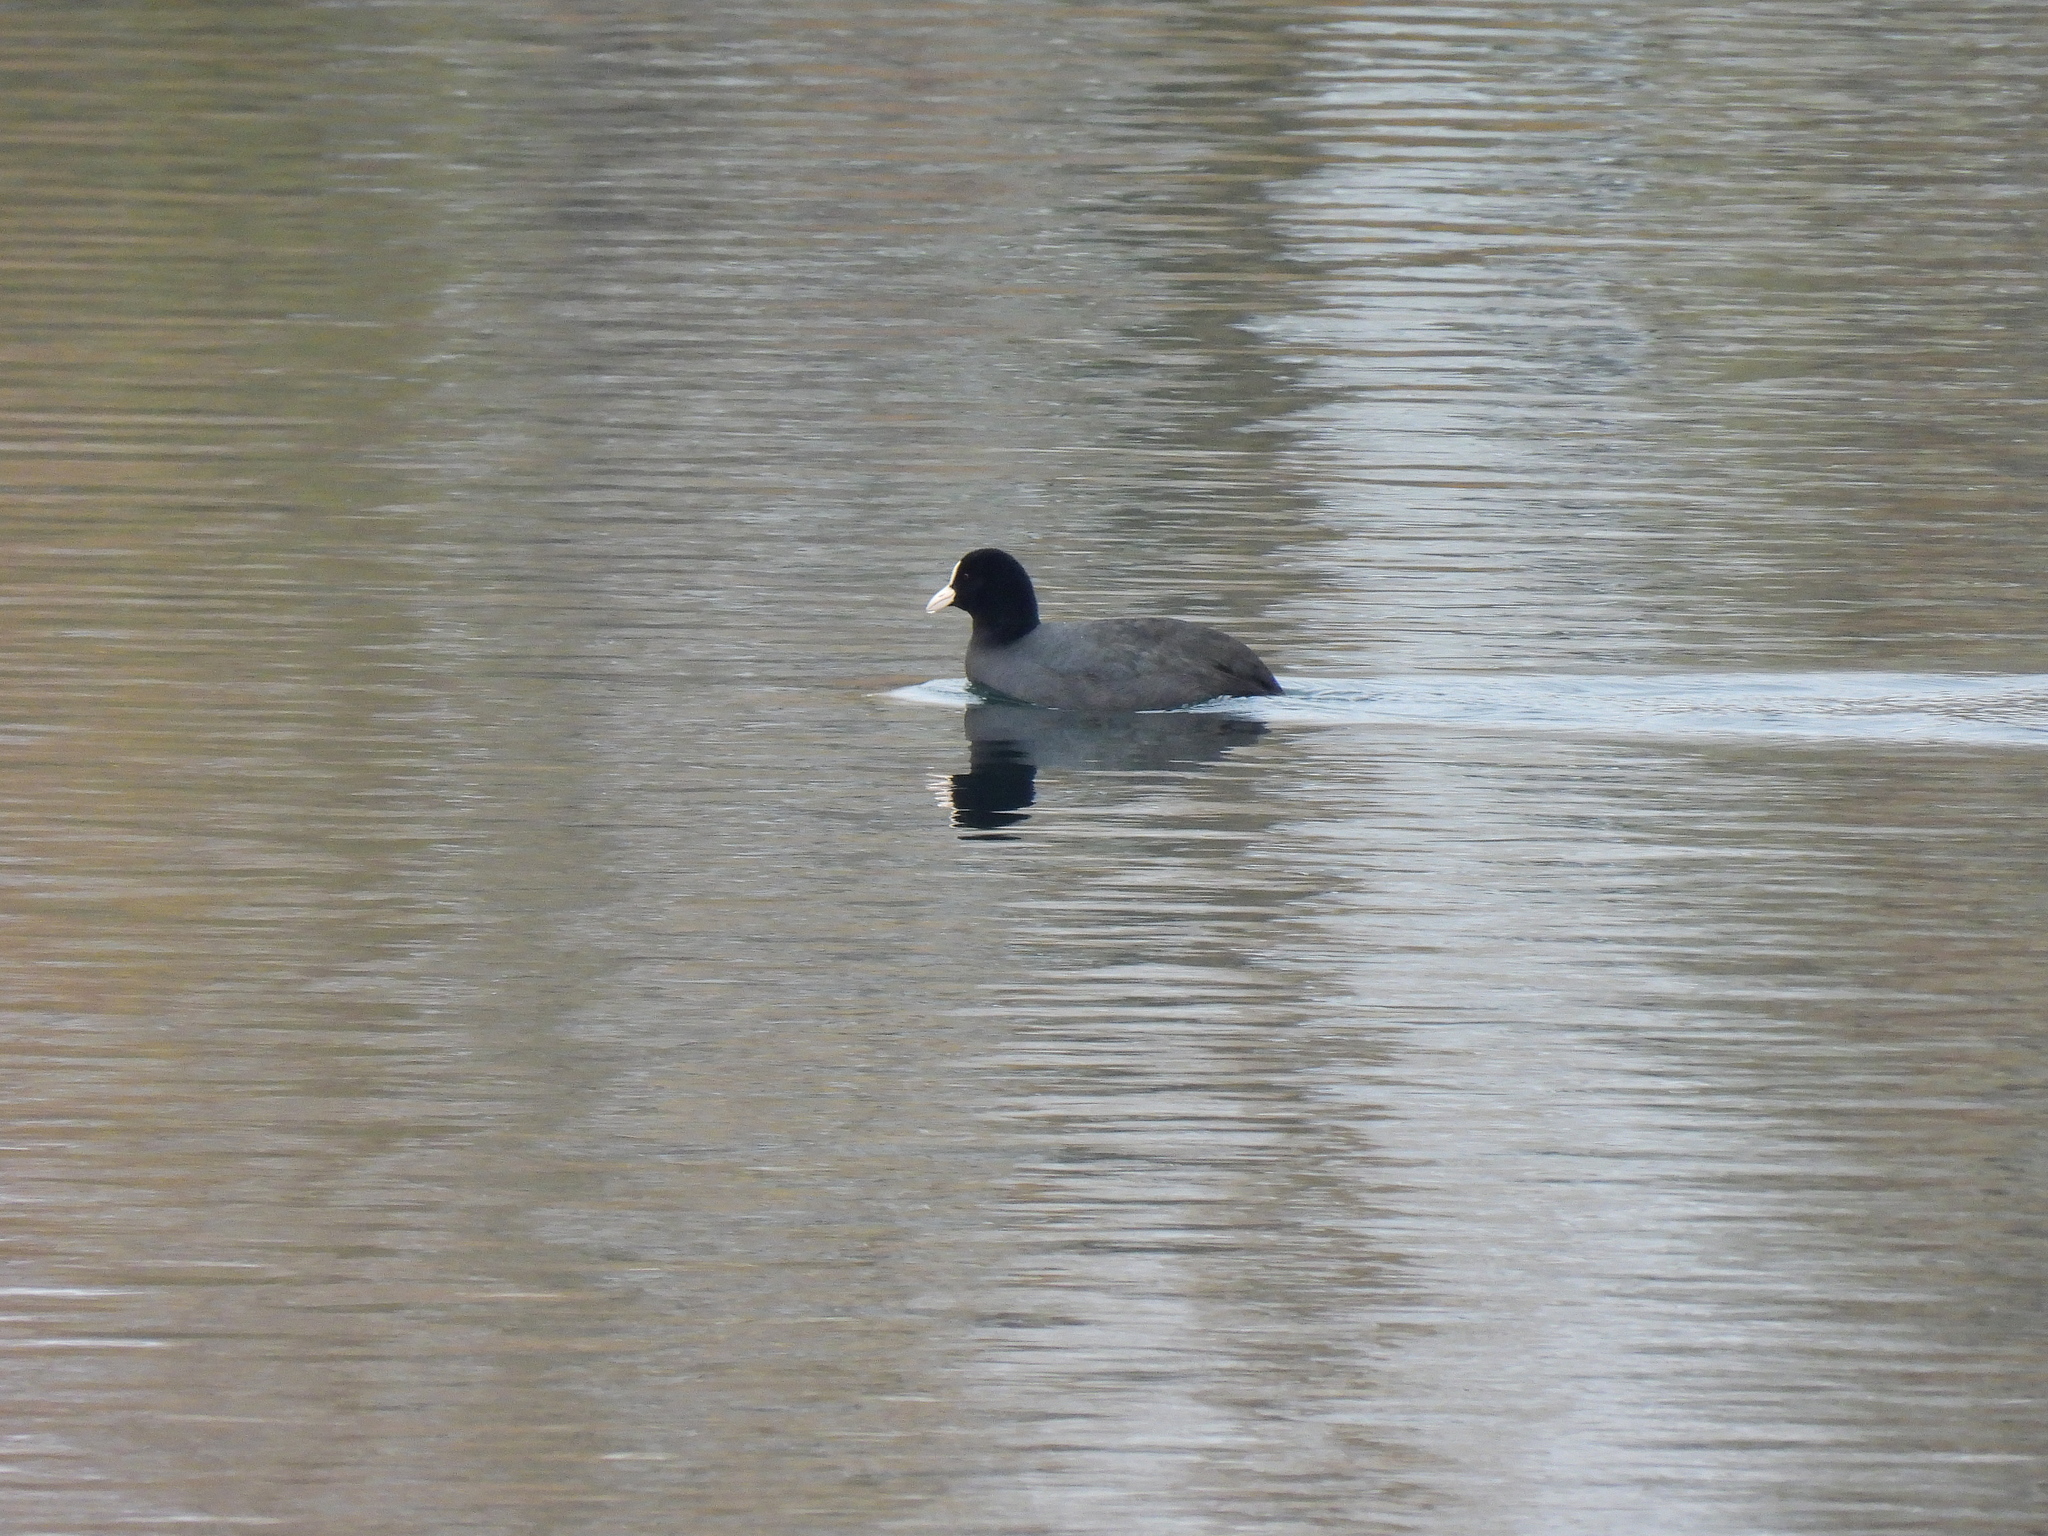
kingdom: Animalia
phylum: Chordata
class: Aves
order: Gruiformes
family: Rallidae
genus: Fulica
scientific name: Fulica atra
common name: Eurasian coot
